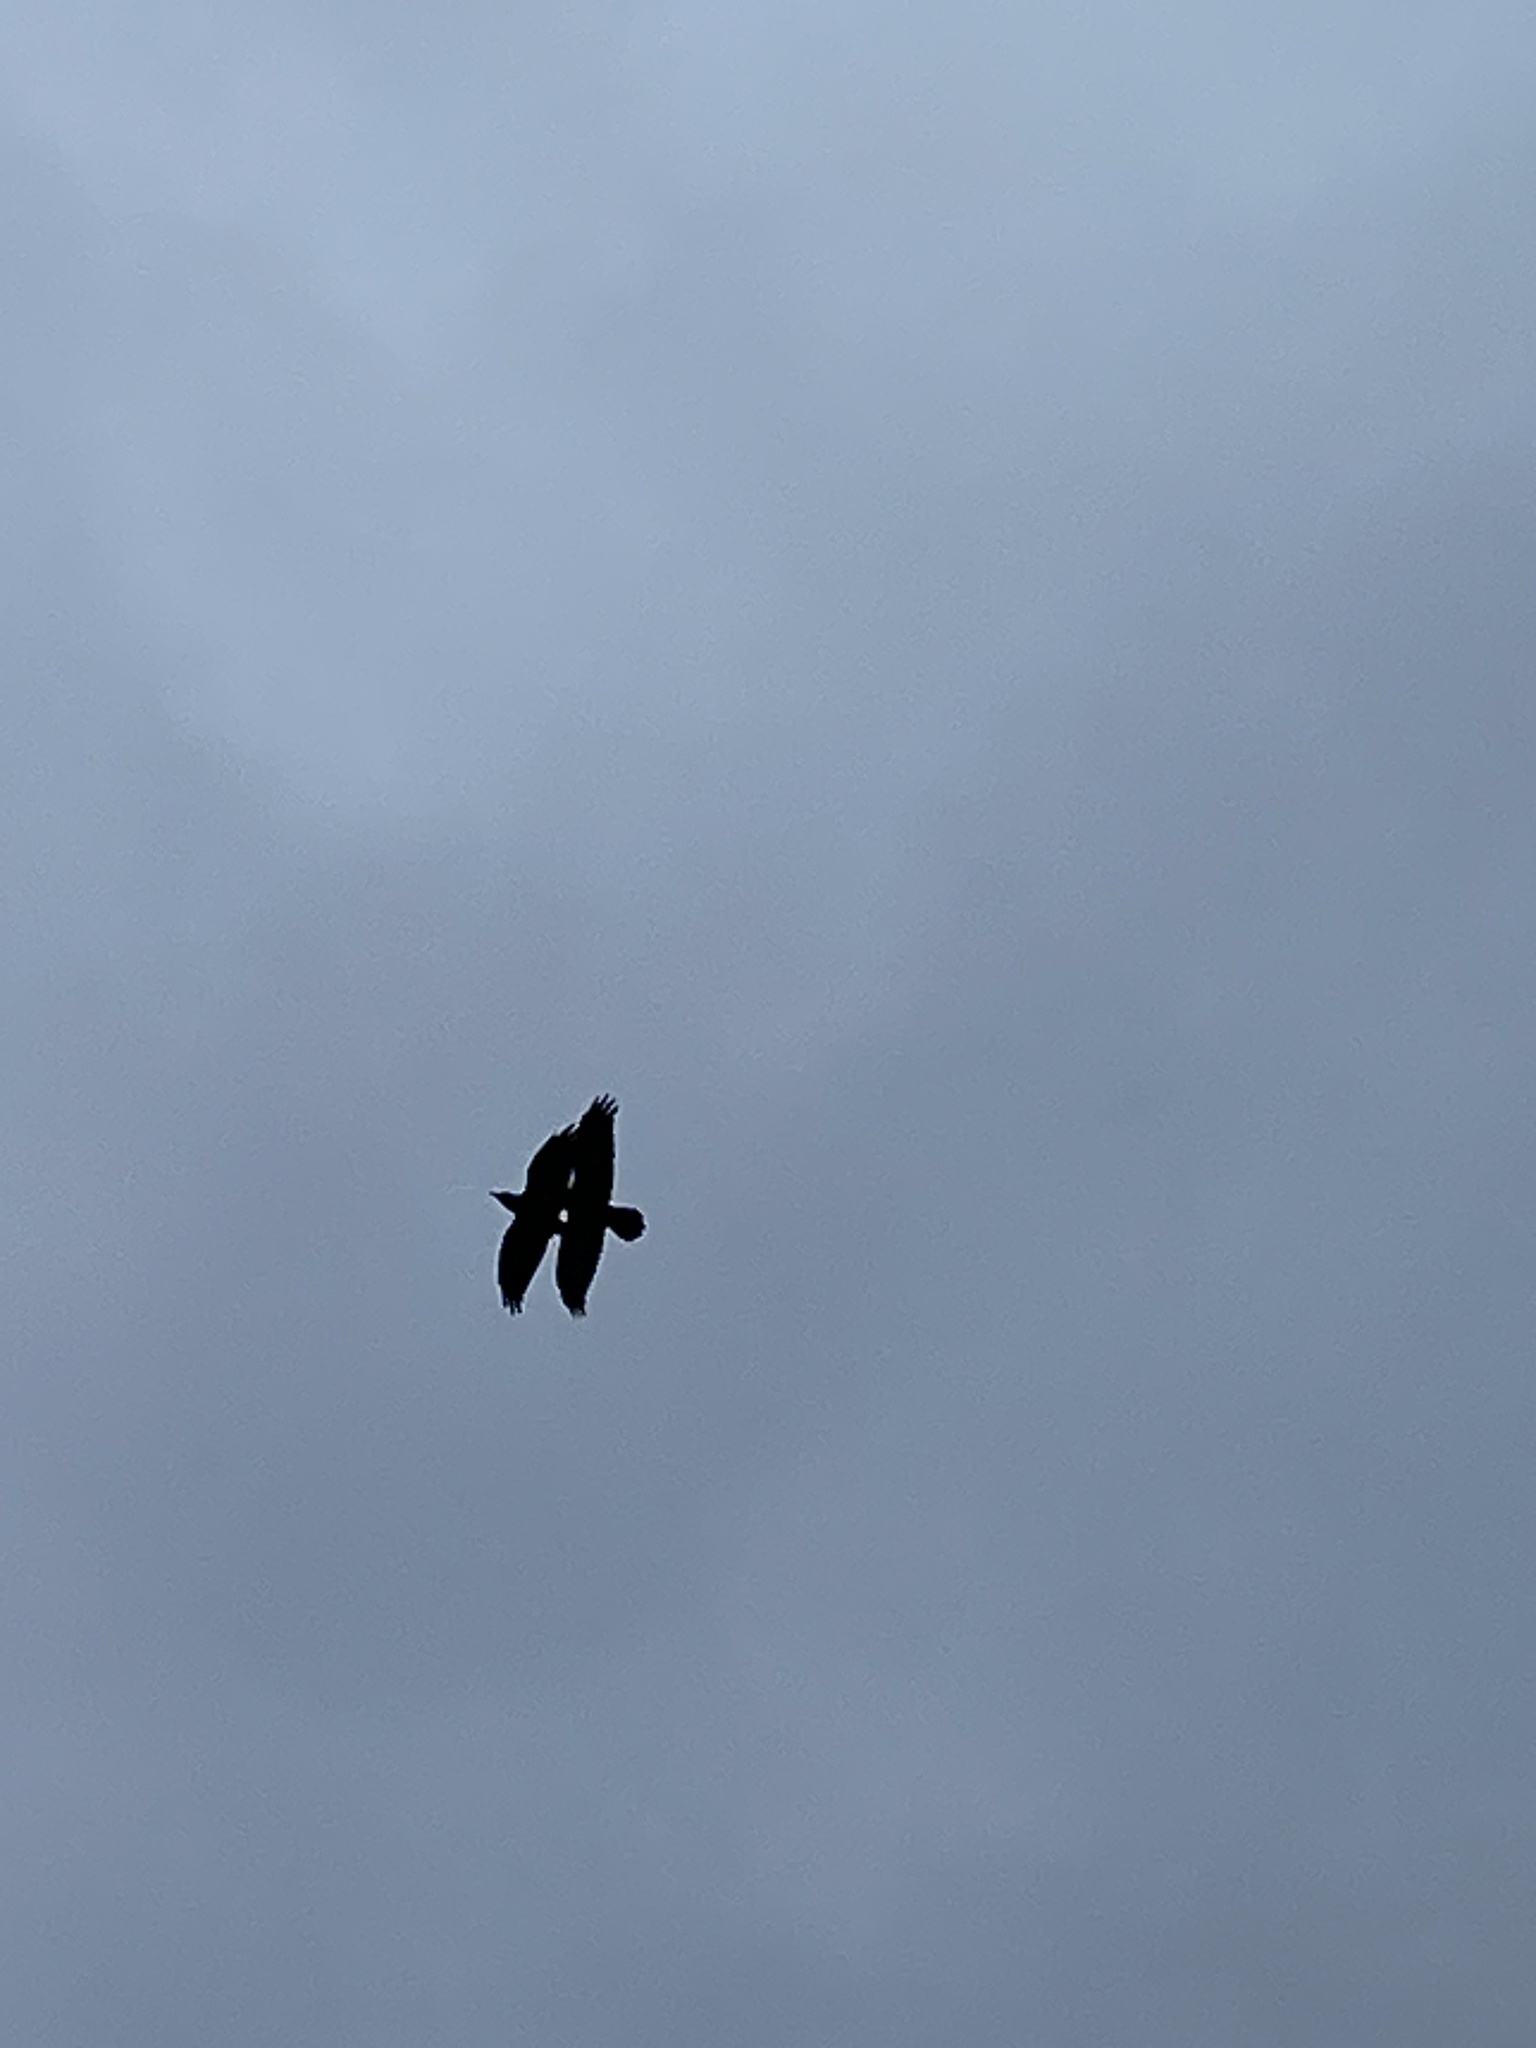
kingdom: Animalia
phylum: Chordata
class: Aves
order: Passeriformes
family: Corvidae
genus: Corvus
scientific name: Corvus corax
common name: Common raven
